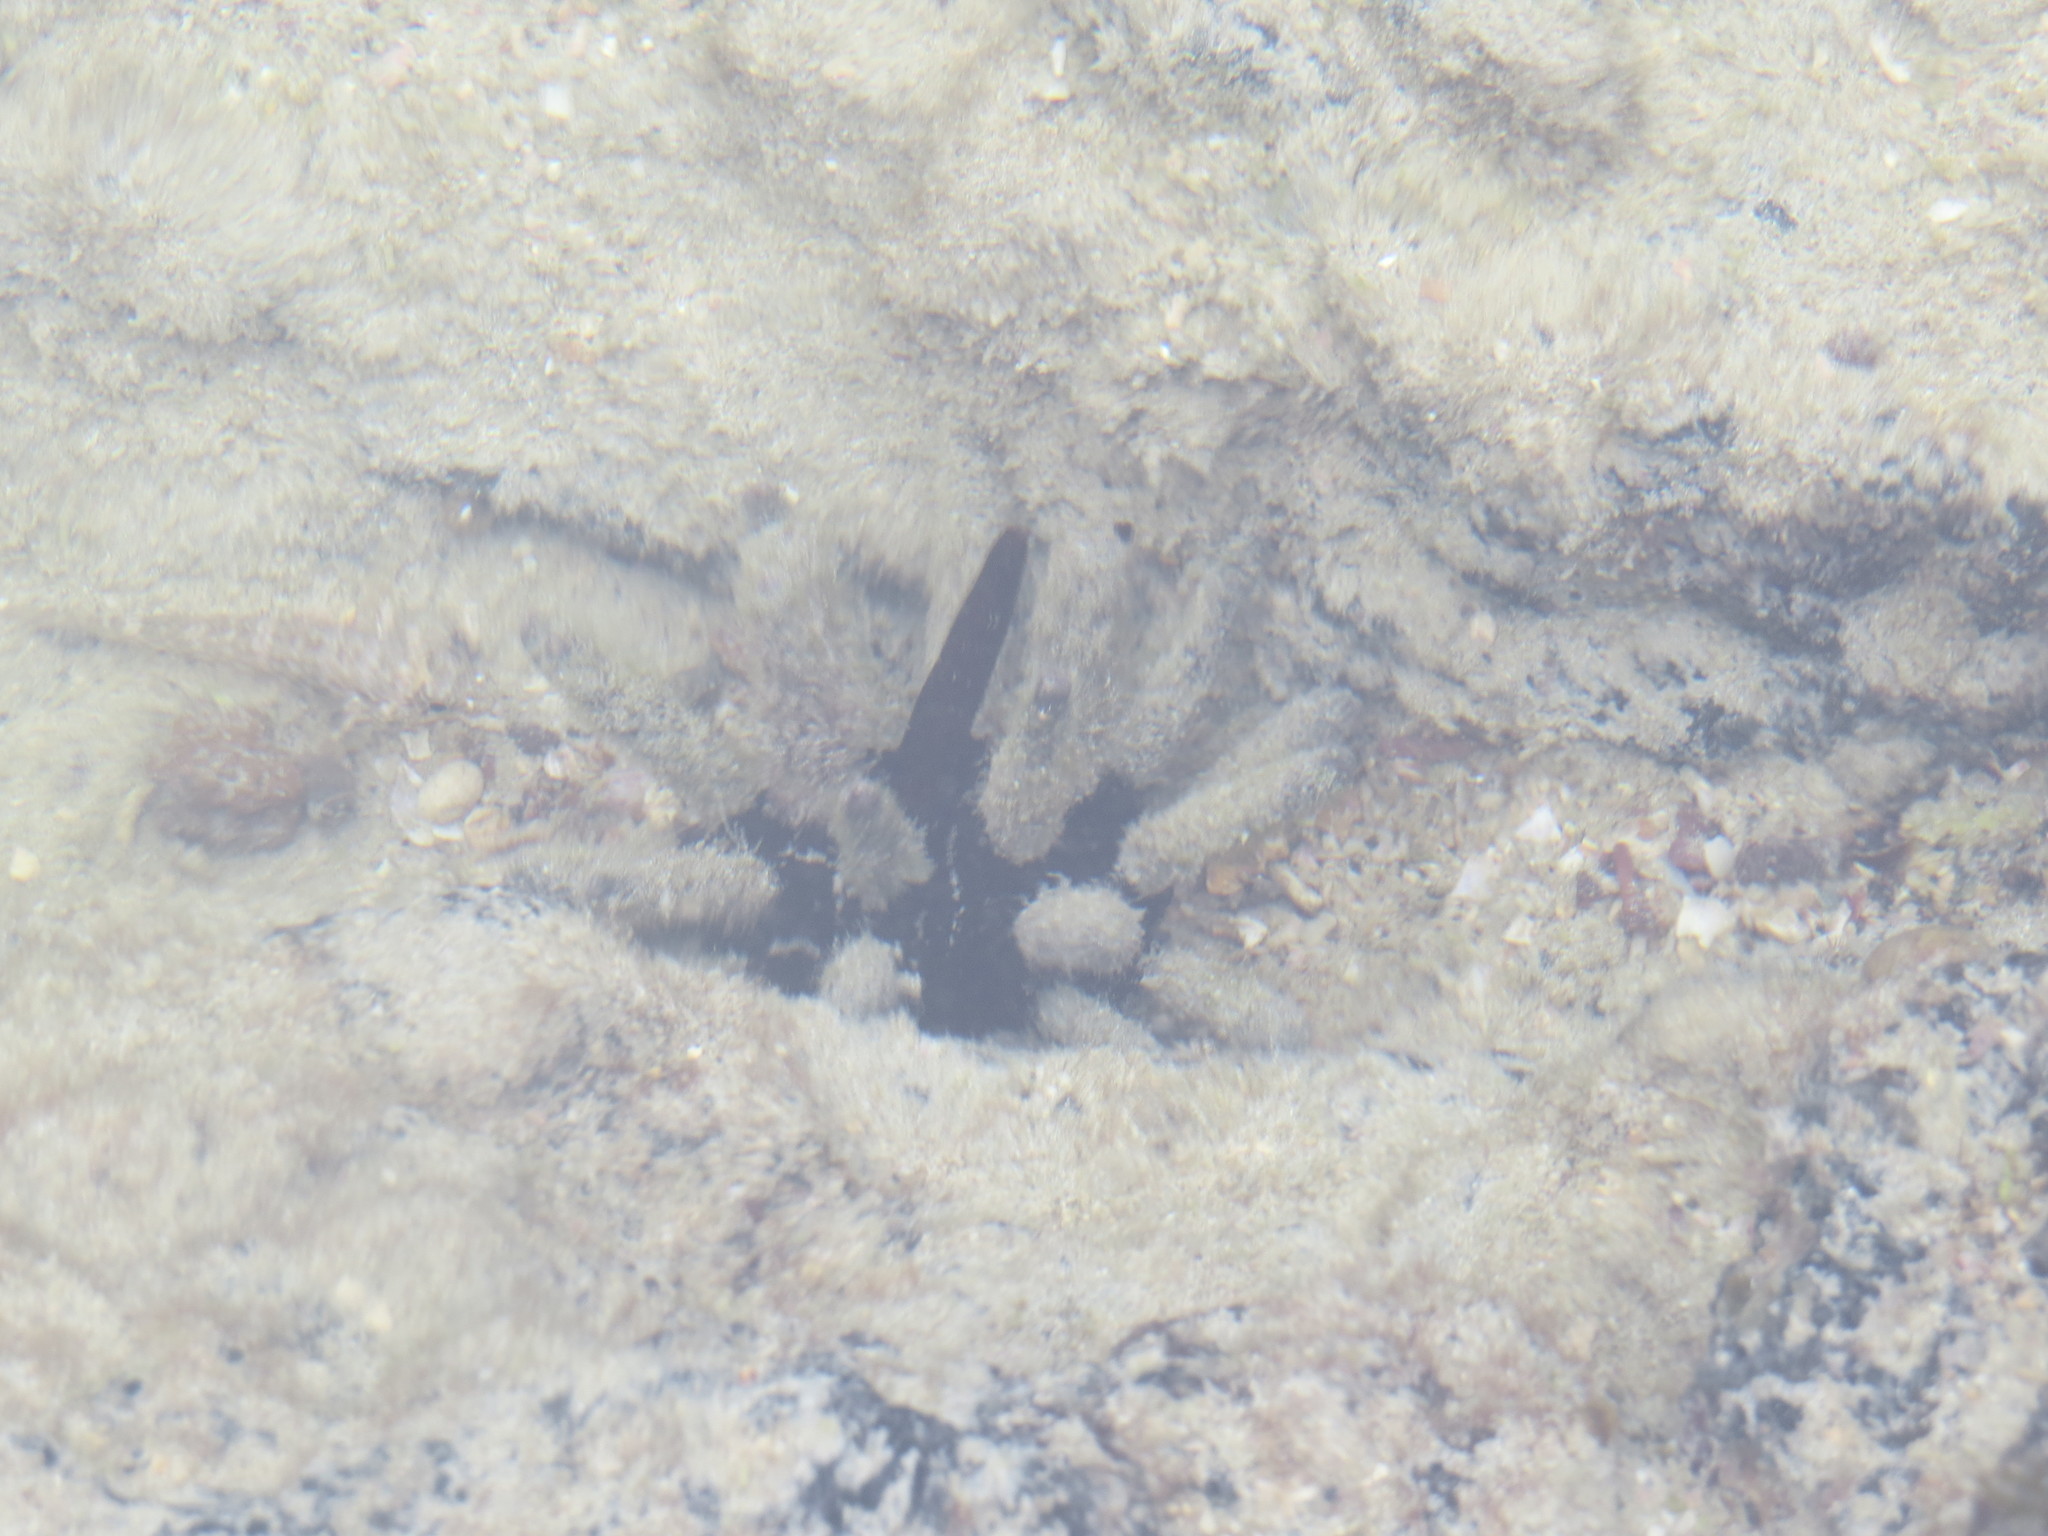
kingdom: Animalia
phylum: Echinodermata
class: Echinoidea
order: Cidaroida
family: Cidaridae
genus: Eucidaris
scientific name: Eucidaris galapagensis
